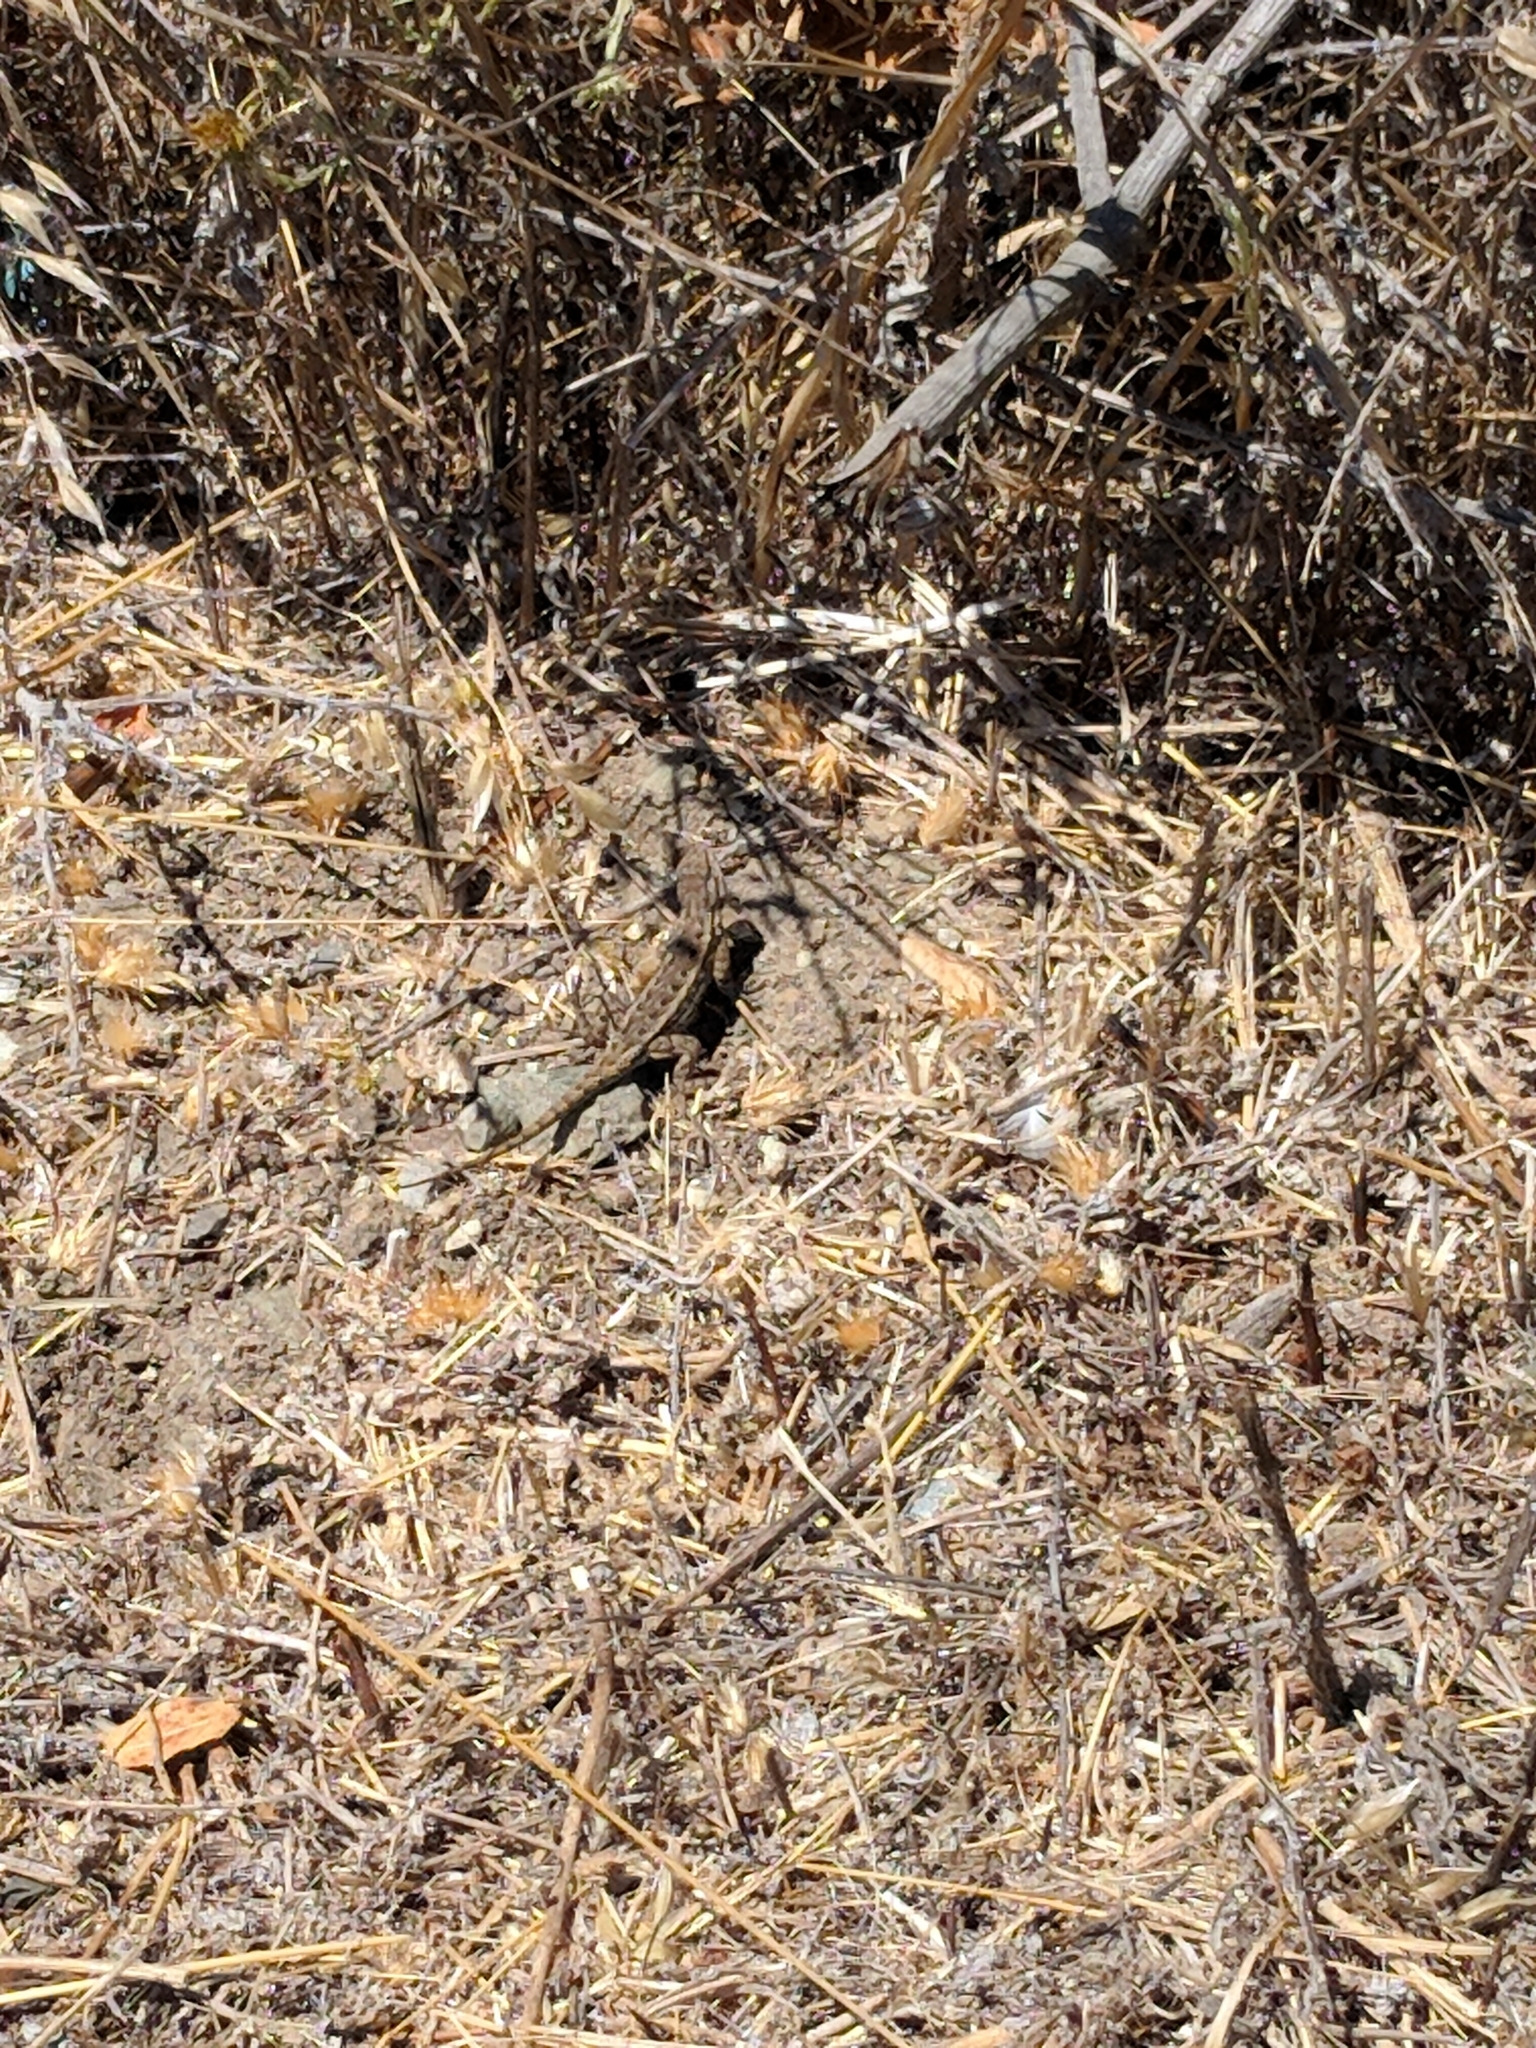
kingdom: Animalia
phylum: Chordata
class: Squamata
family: Phrynosomatidae
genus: Sceloporus
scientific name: Sceloporus occidentalis
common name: Western fence lizard
